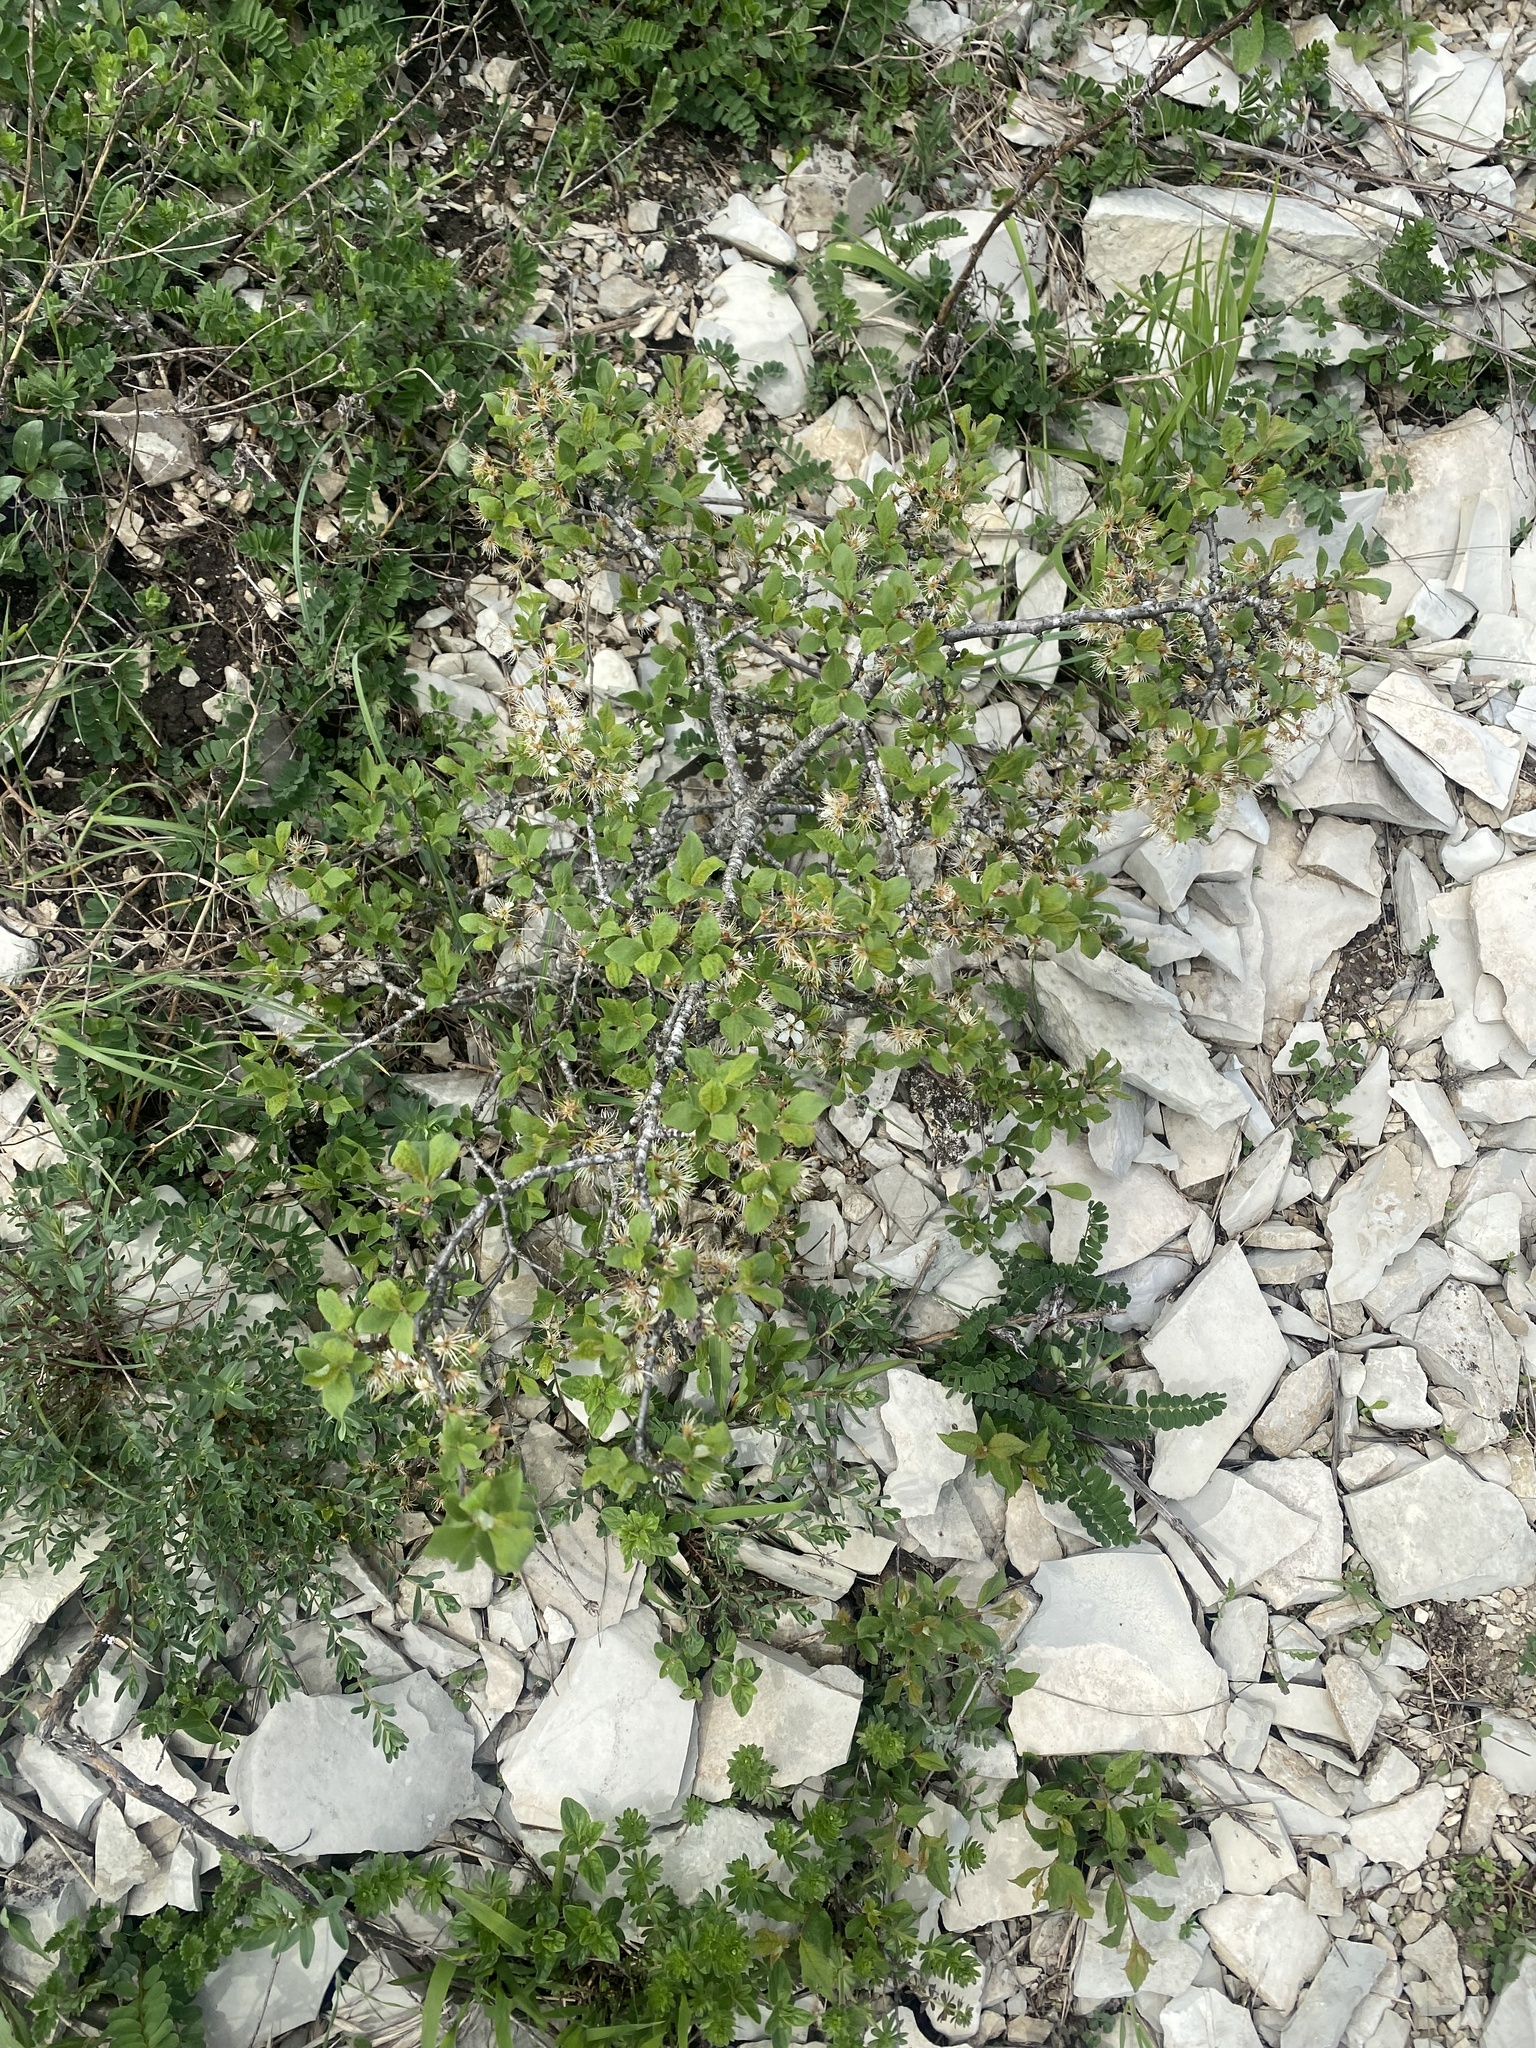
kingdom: Plantae
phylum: Tracheophyta
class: Magnoliopsida
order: Rosales
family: Rosaceae
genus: Prunus
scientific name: Prunus spinosa
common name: Blackthorn
